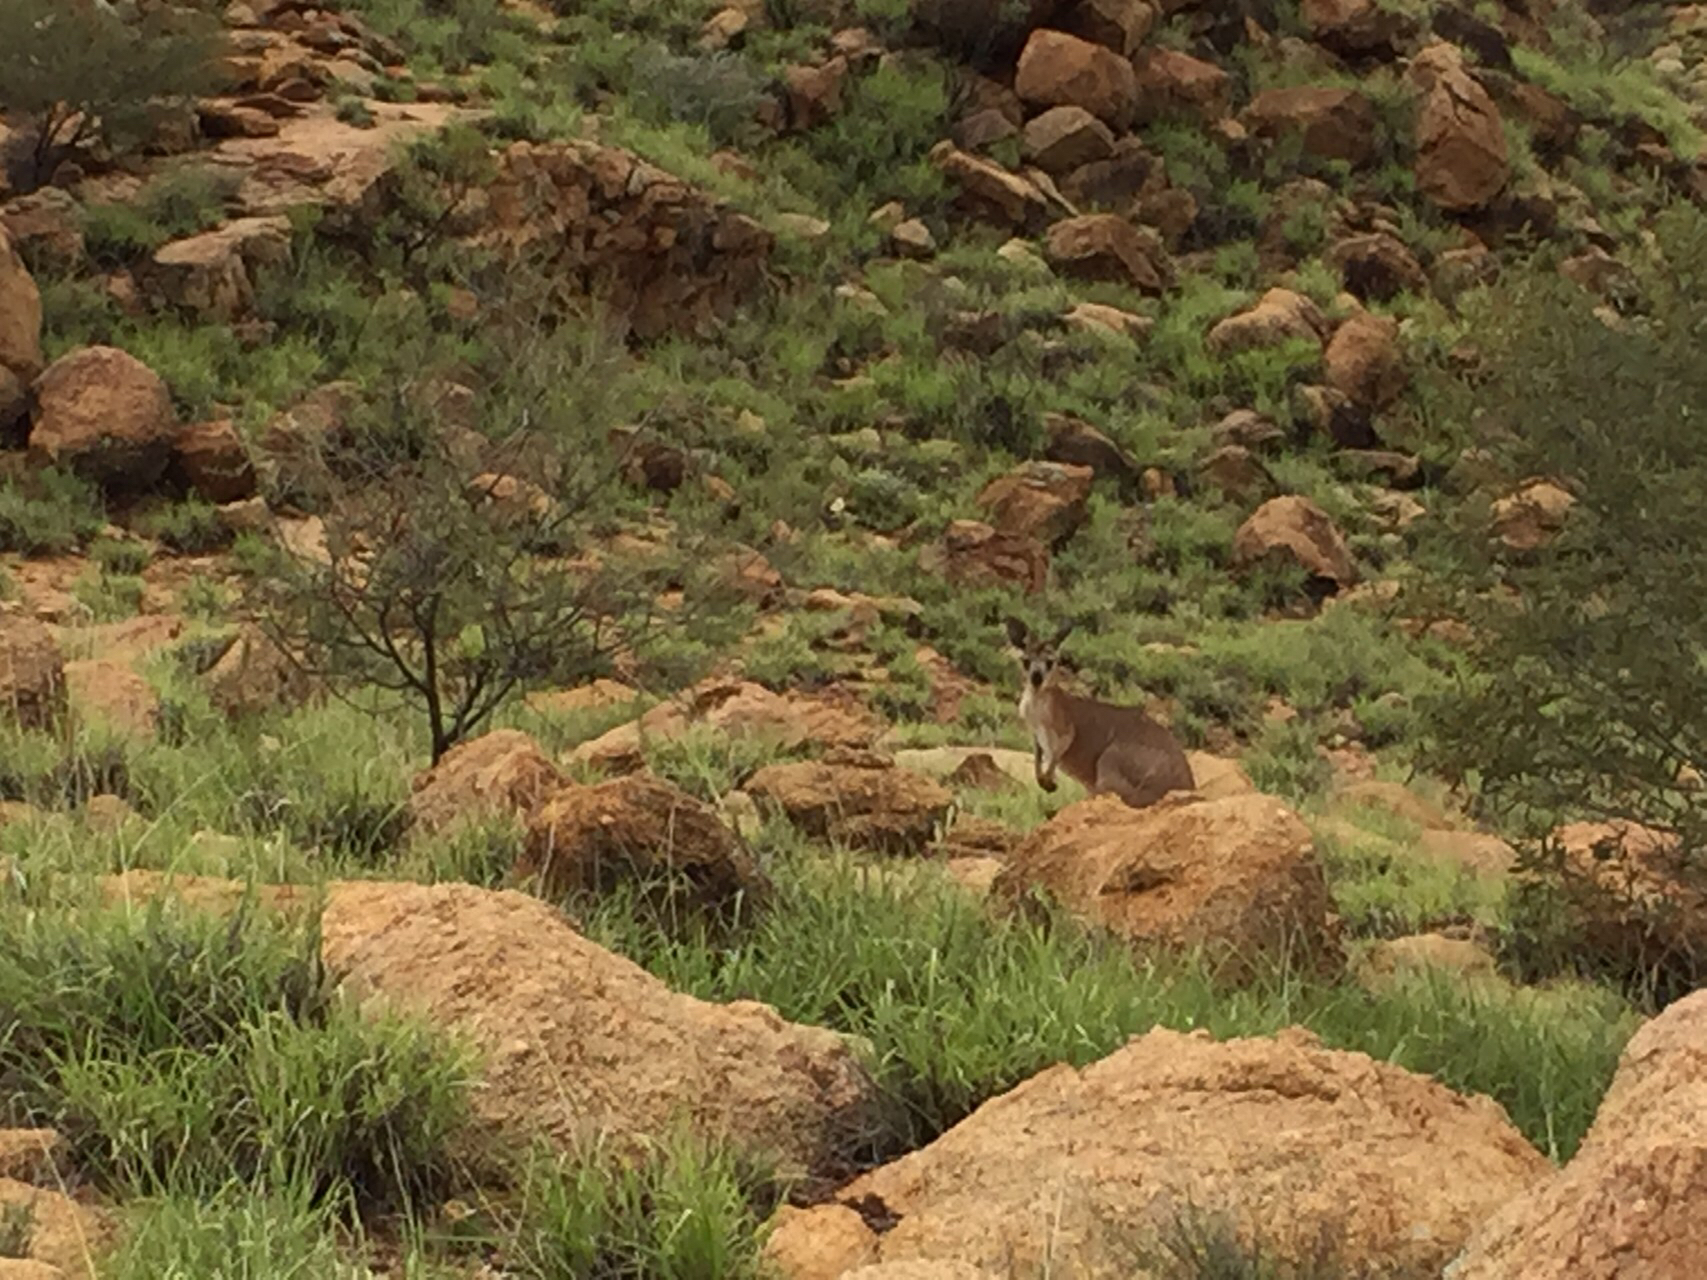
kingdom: Animalia
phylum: Chordata
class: Mammalia
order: Diprotodontia
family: Macropodidae
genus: Macropus
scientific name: Macropus robustus
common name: Eastern wallaroo
